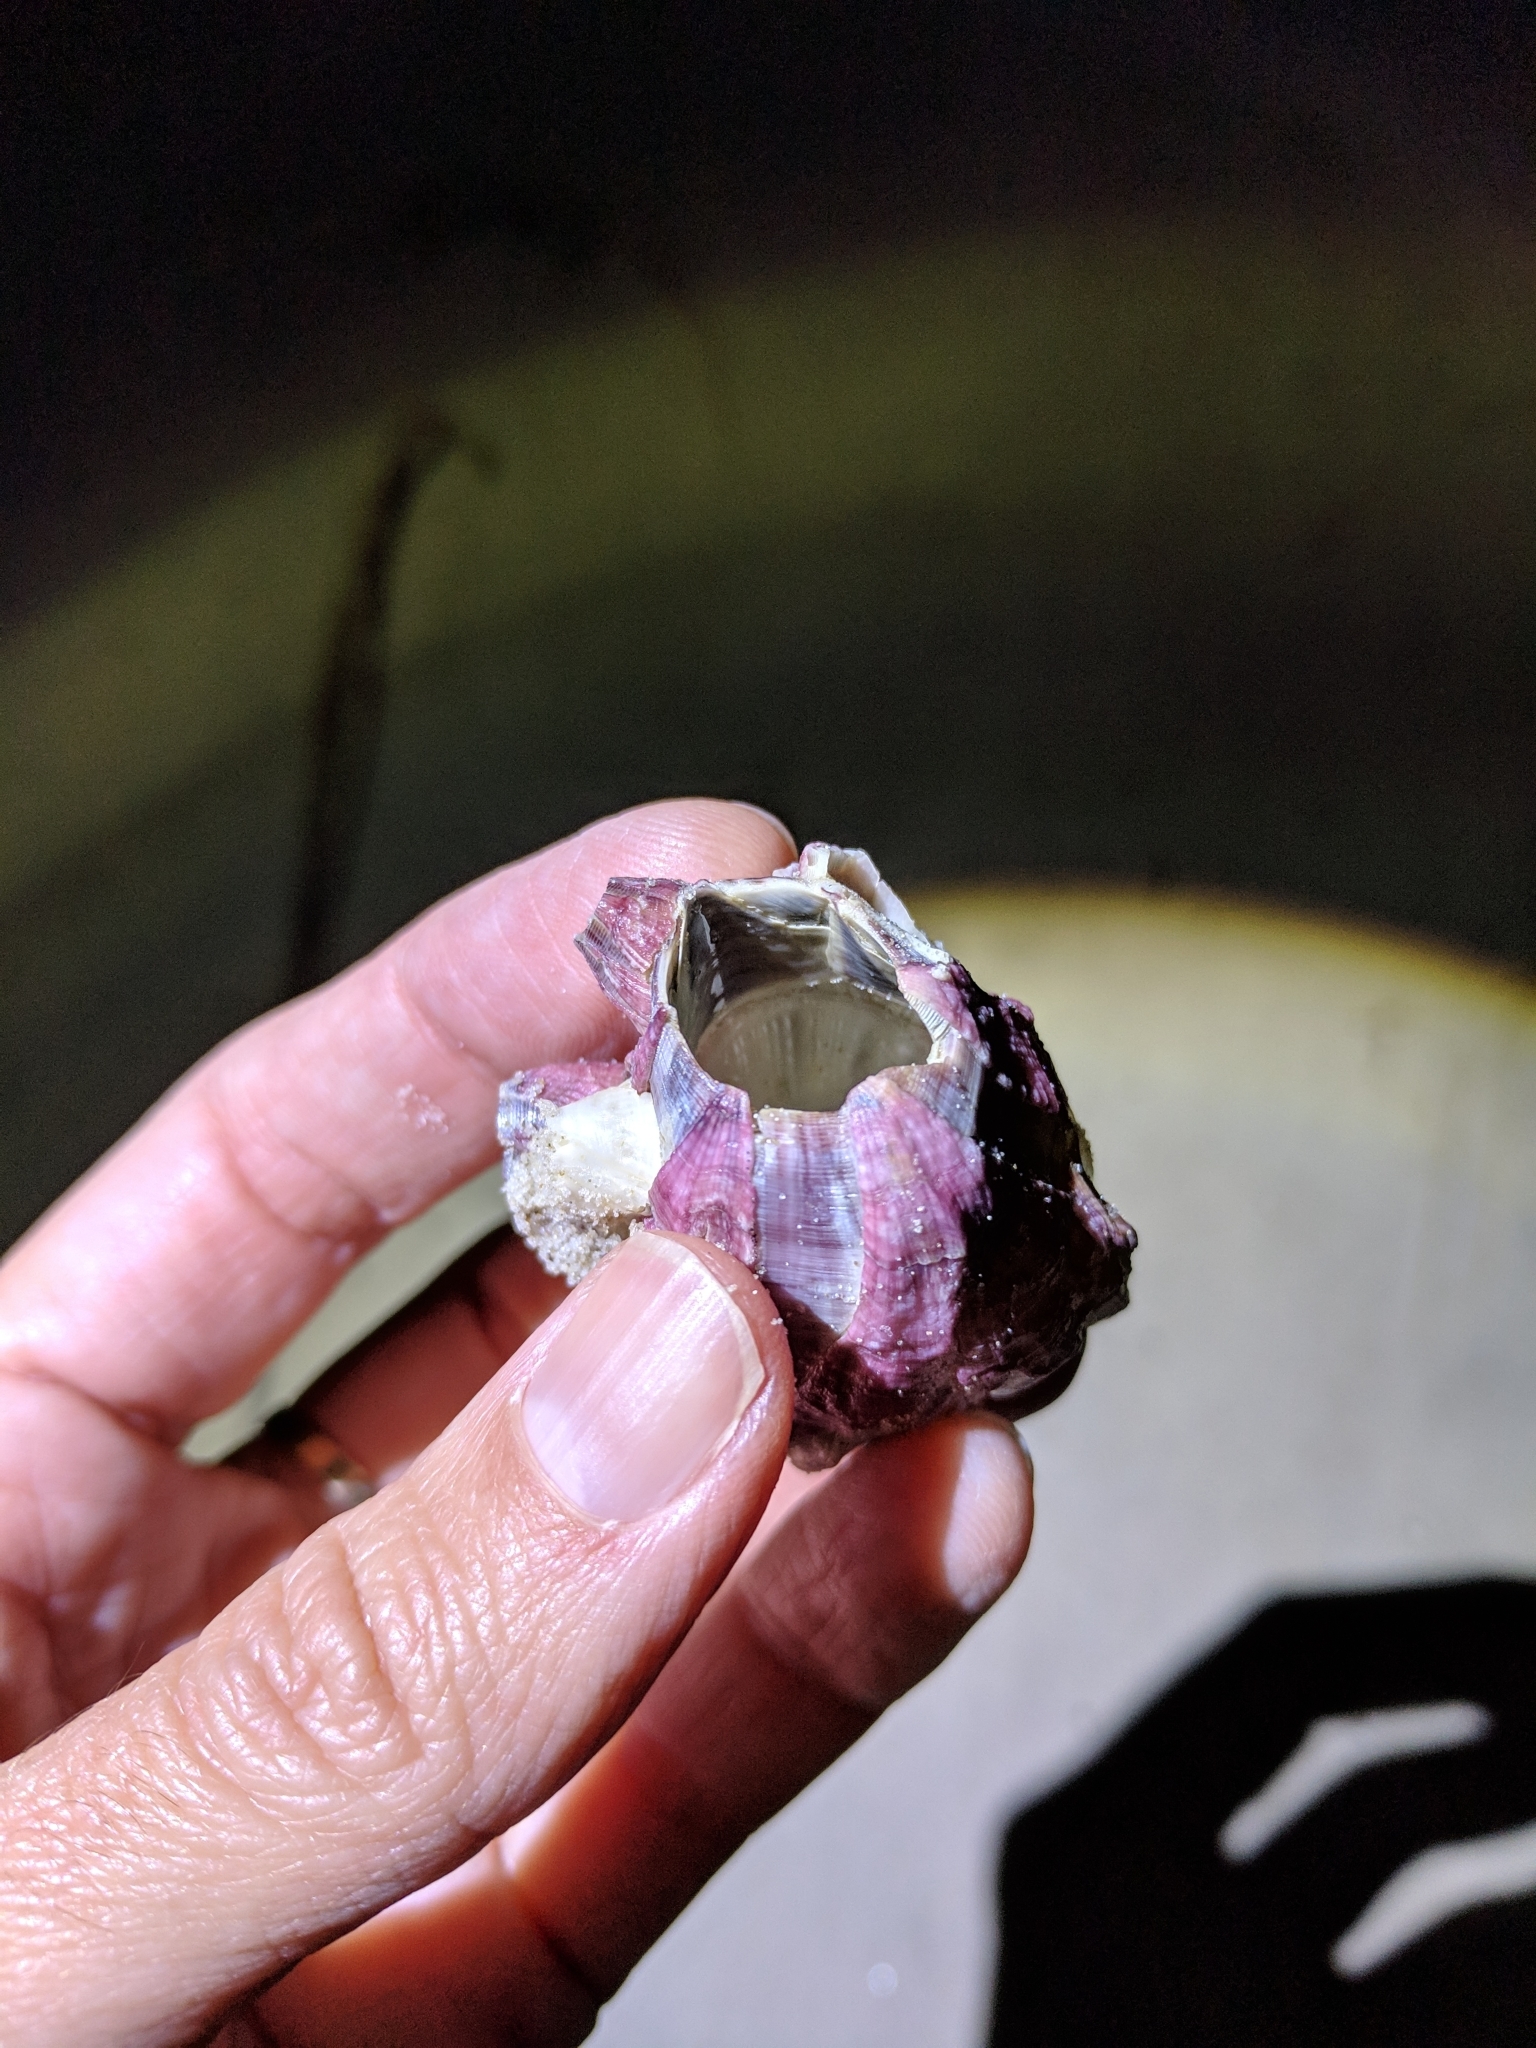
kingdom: Animalia
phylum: Arthropoda
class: Maxillopoda
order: Sessilia
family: Balanidae
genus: Megabalanus
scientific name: Megabalanus tintinnabulum
